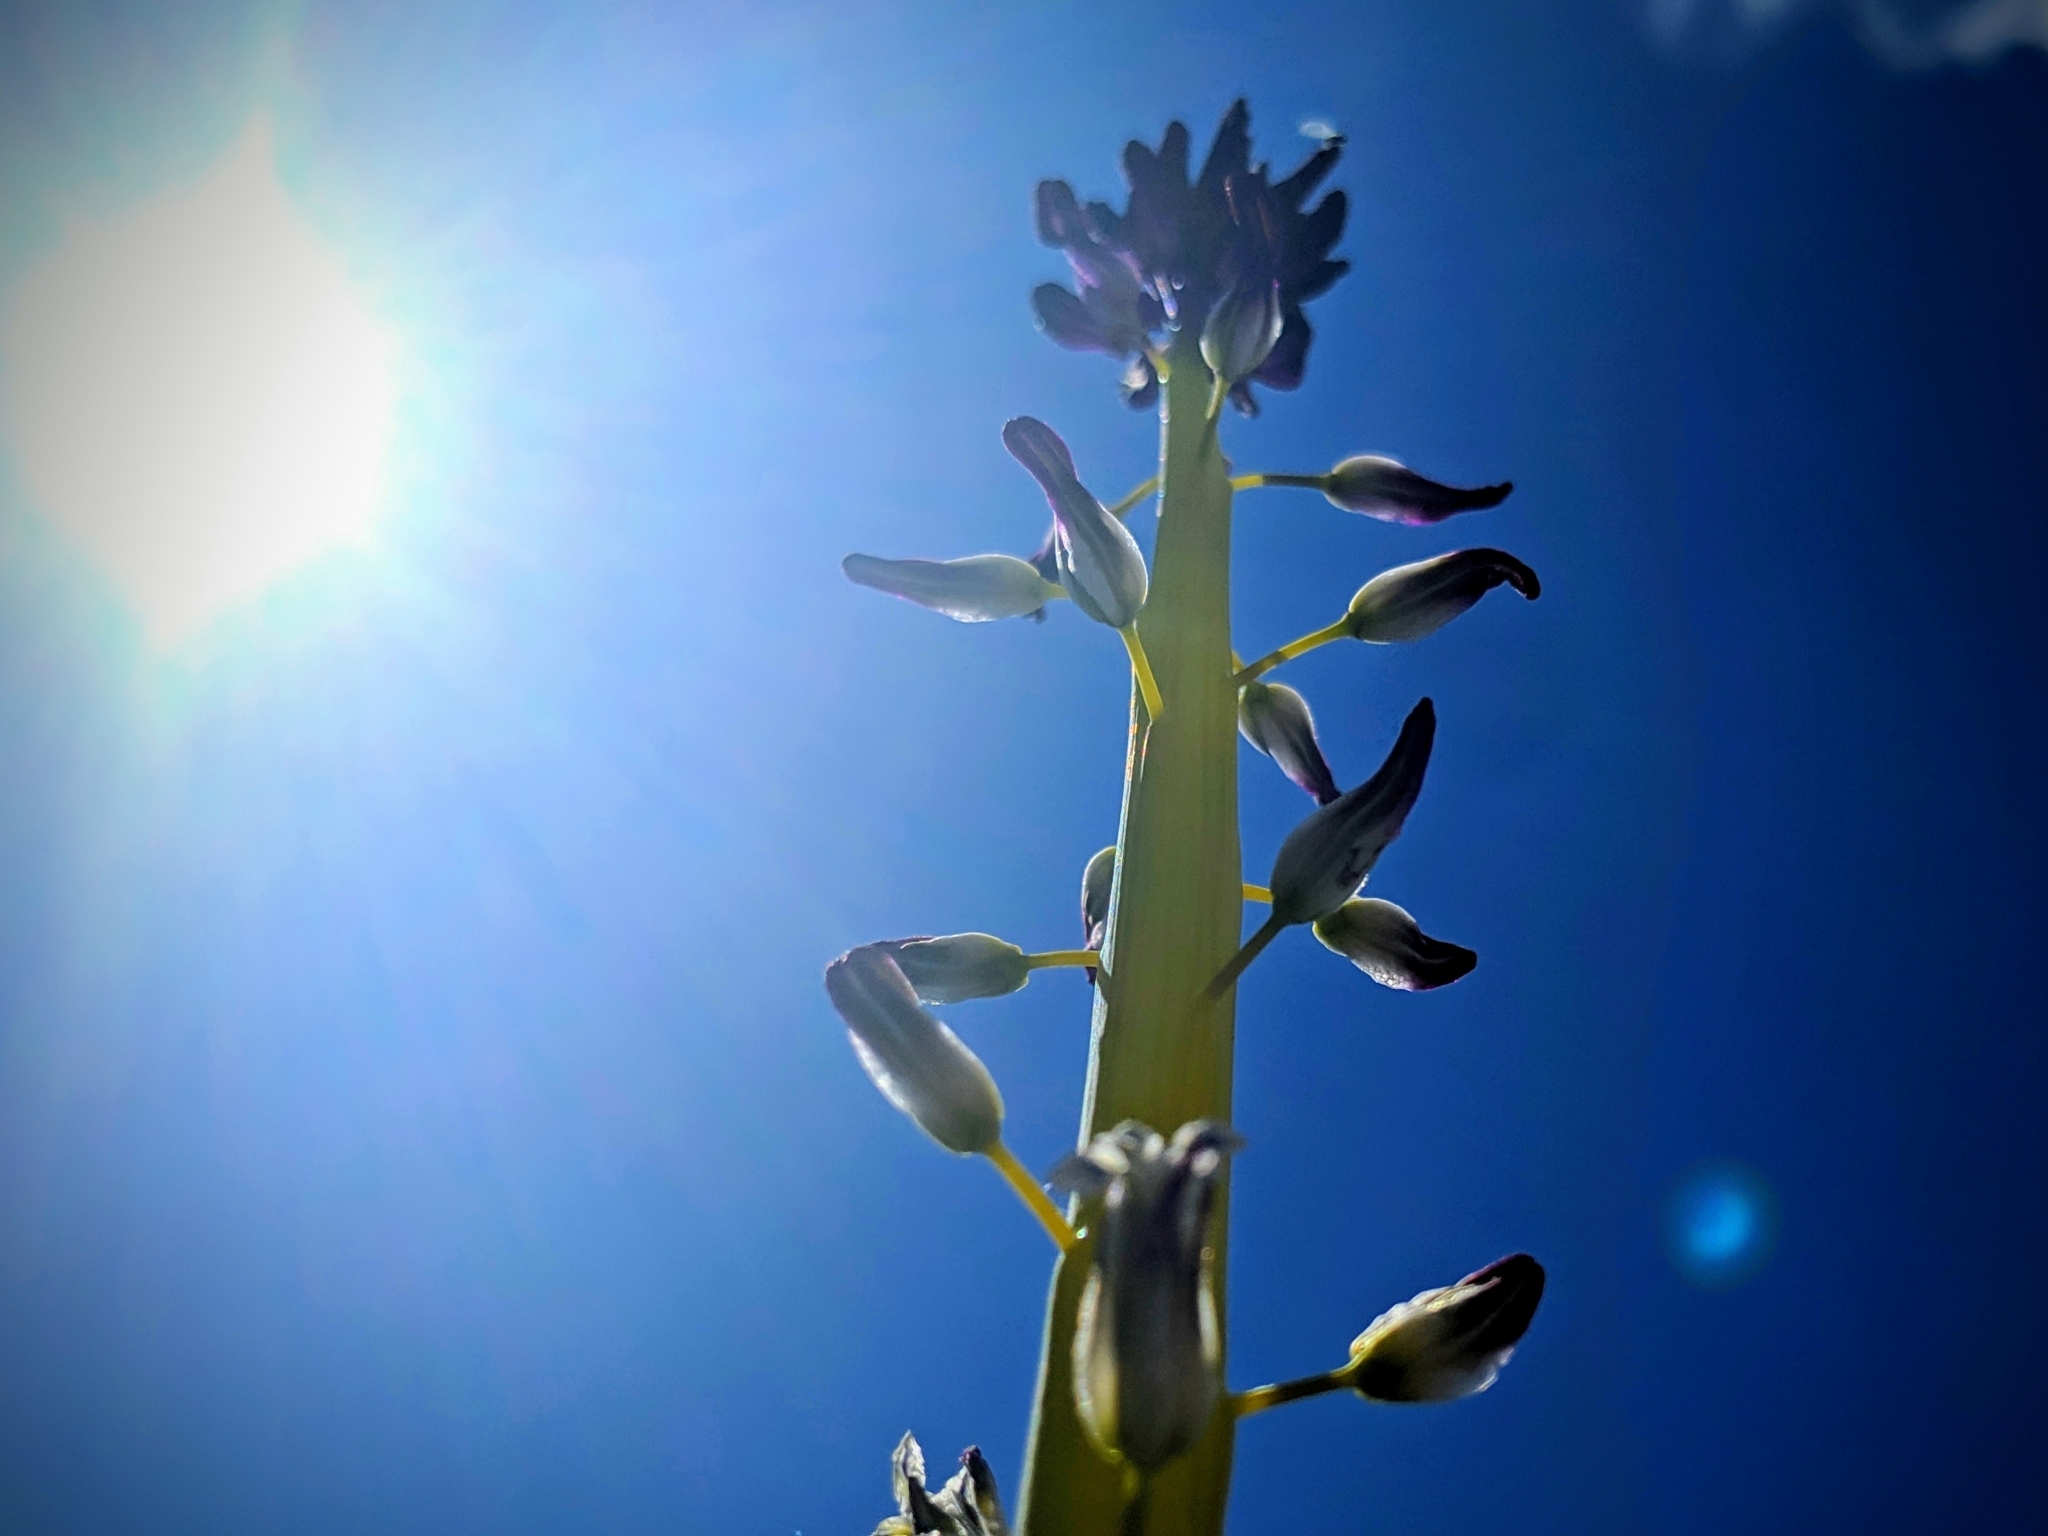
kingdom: Plantae
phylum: Tracheophyta
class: Magnoliopsida
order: Brassicales
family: Brassicaceae
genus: Streptanthus
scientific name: Streptanthus inflatus
